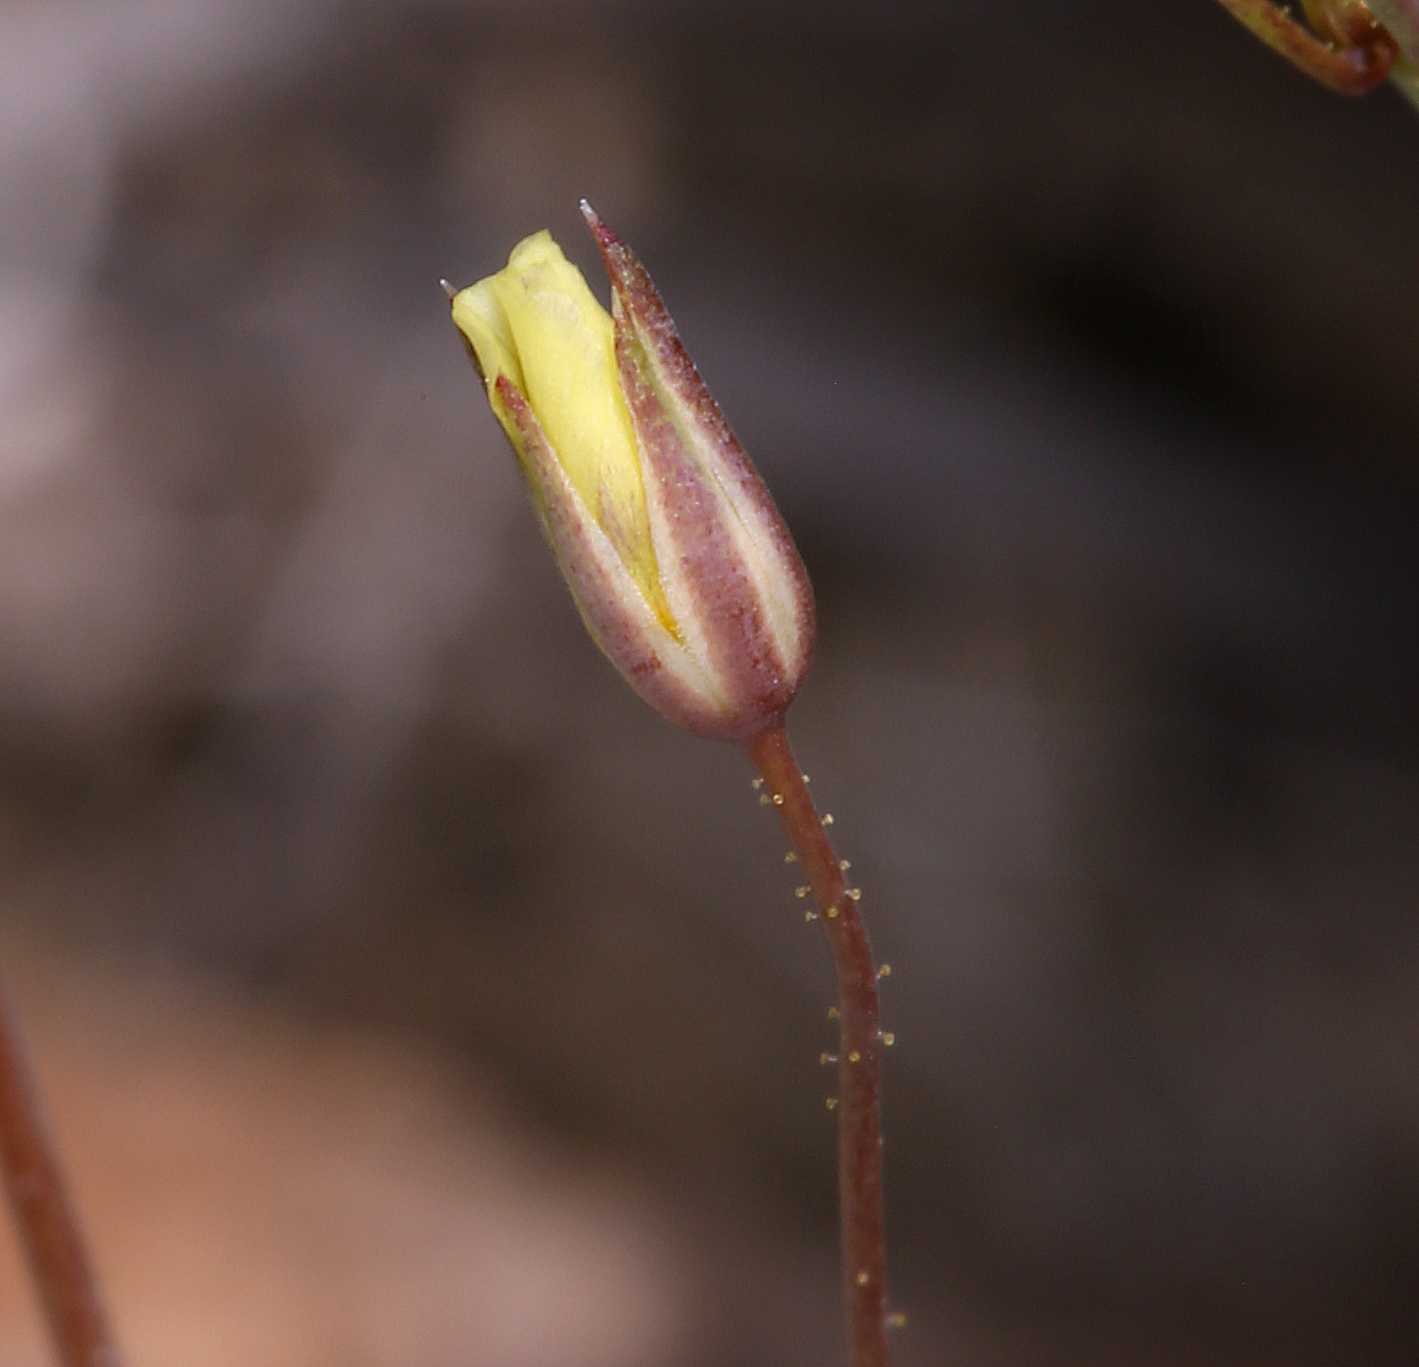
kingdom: Plantae
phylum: Tracheophyta
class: Magnoliopsida
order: Ericales
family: Polemoniaceae
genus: Linanthus
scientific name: Linanthus filiformis
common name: Yellow gilia
